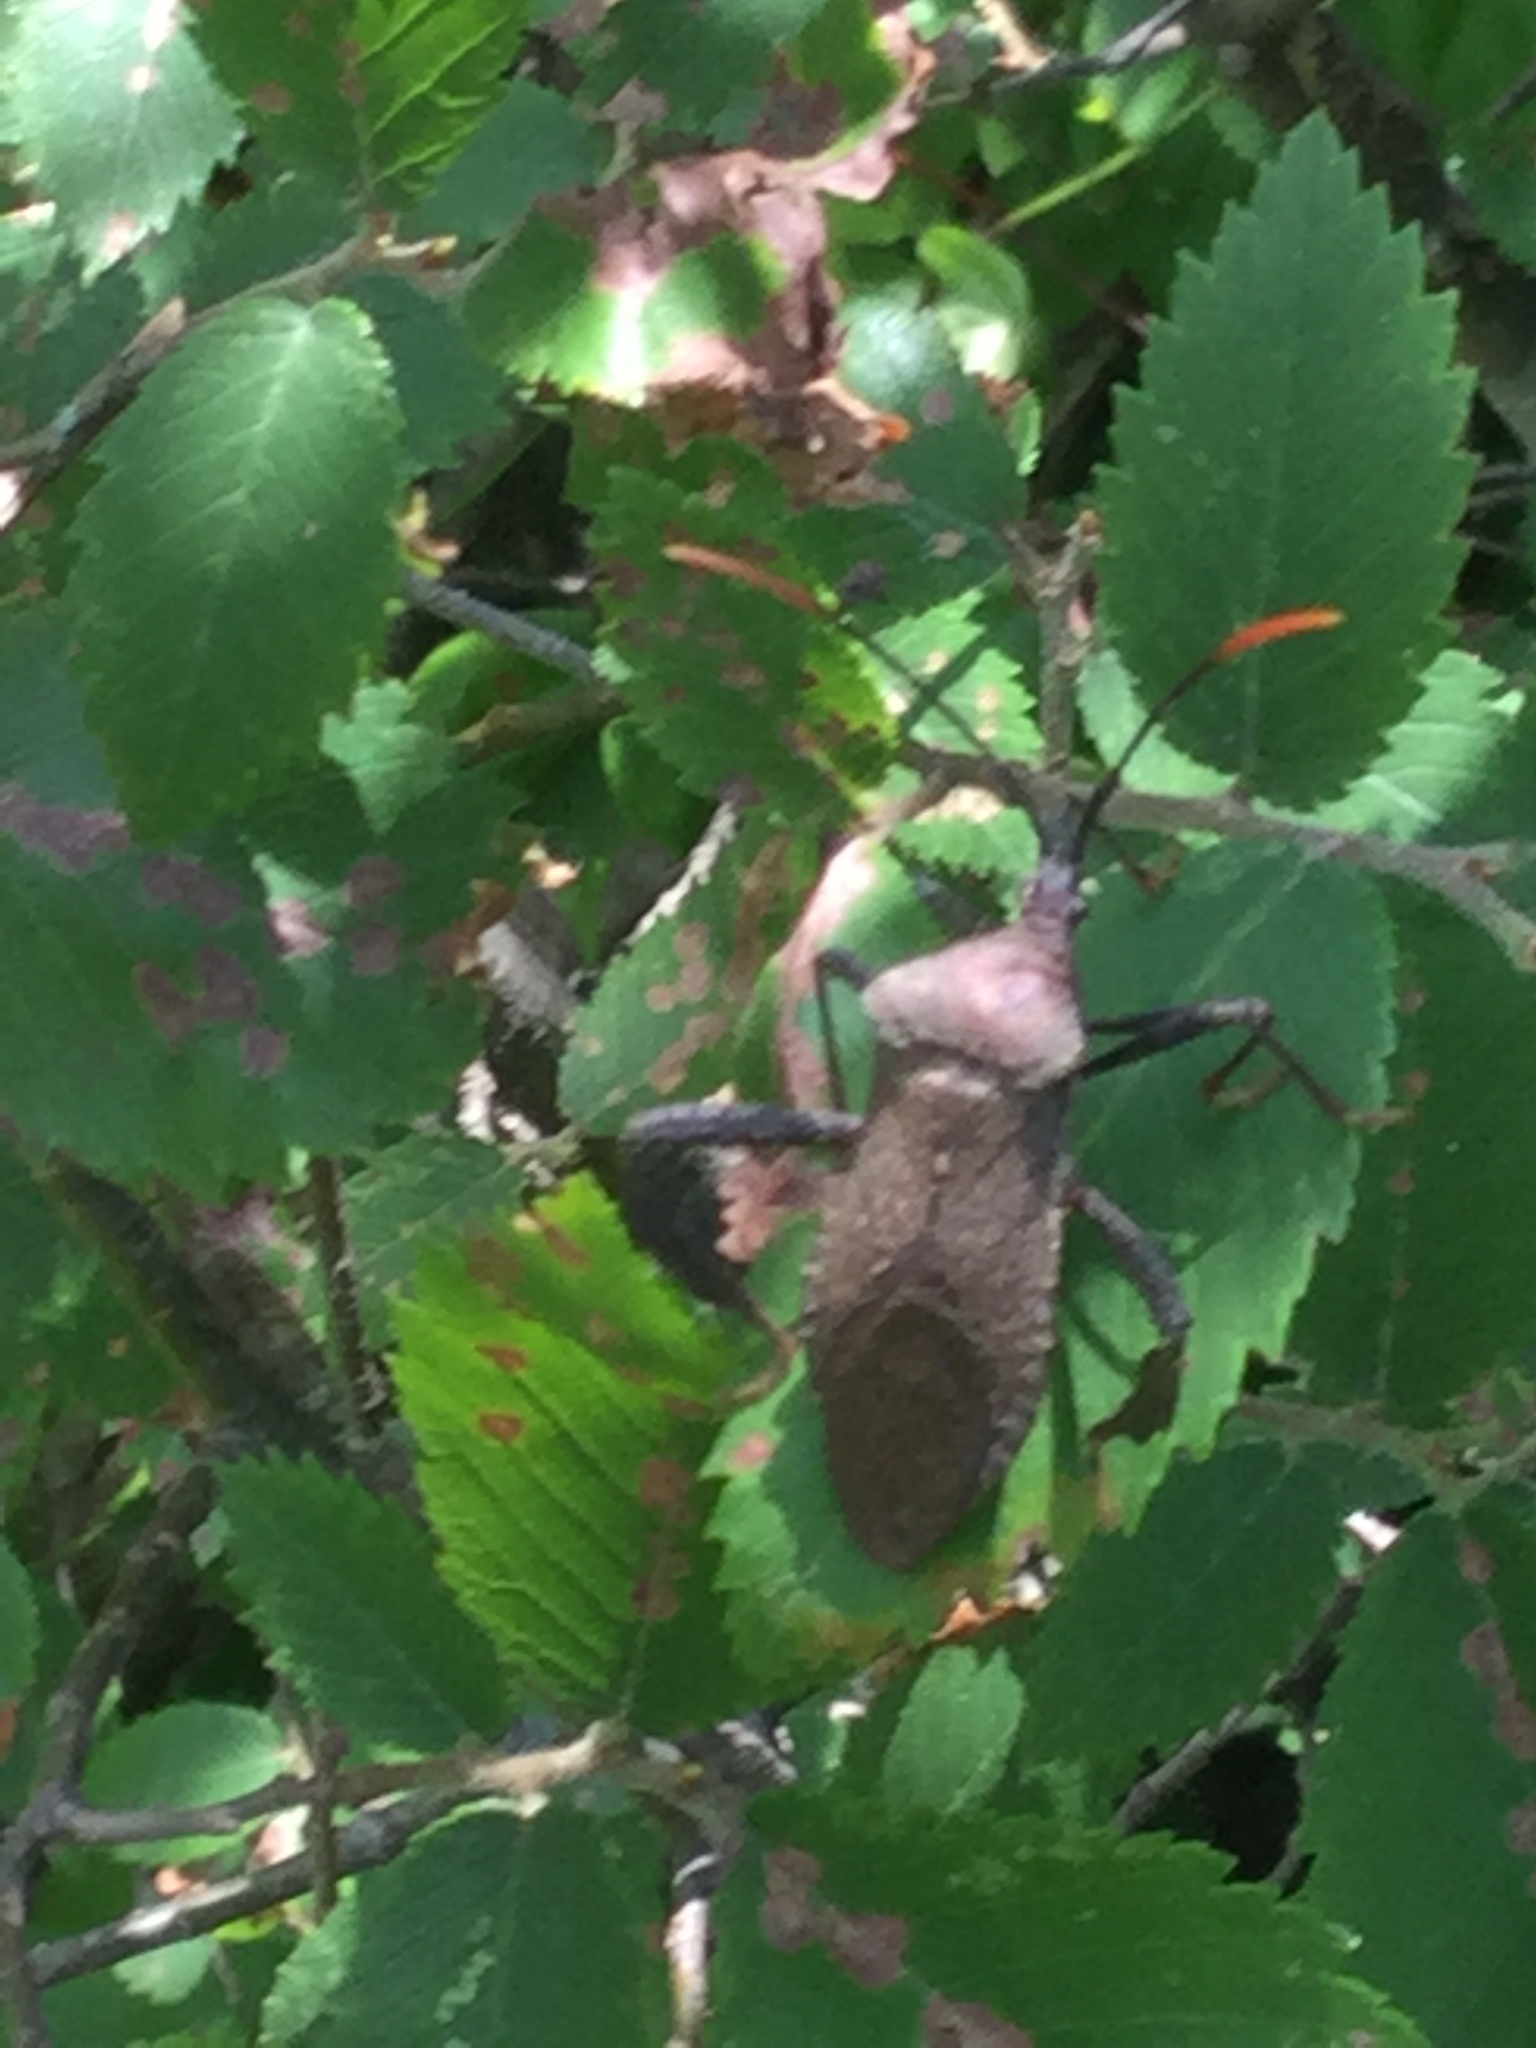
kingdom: Animalia
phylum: Arthropoda
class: Insecta
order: Hemiptera
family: Coreidae
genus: Acanthocephala
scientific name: Acanthocephala terminalis
